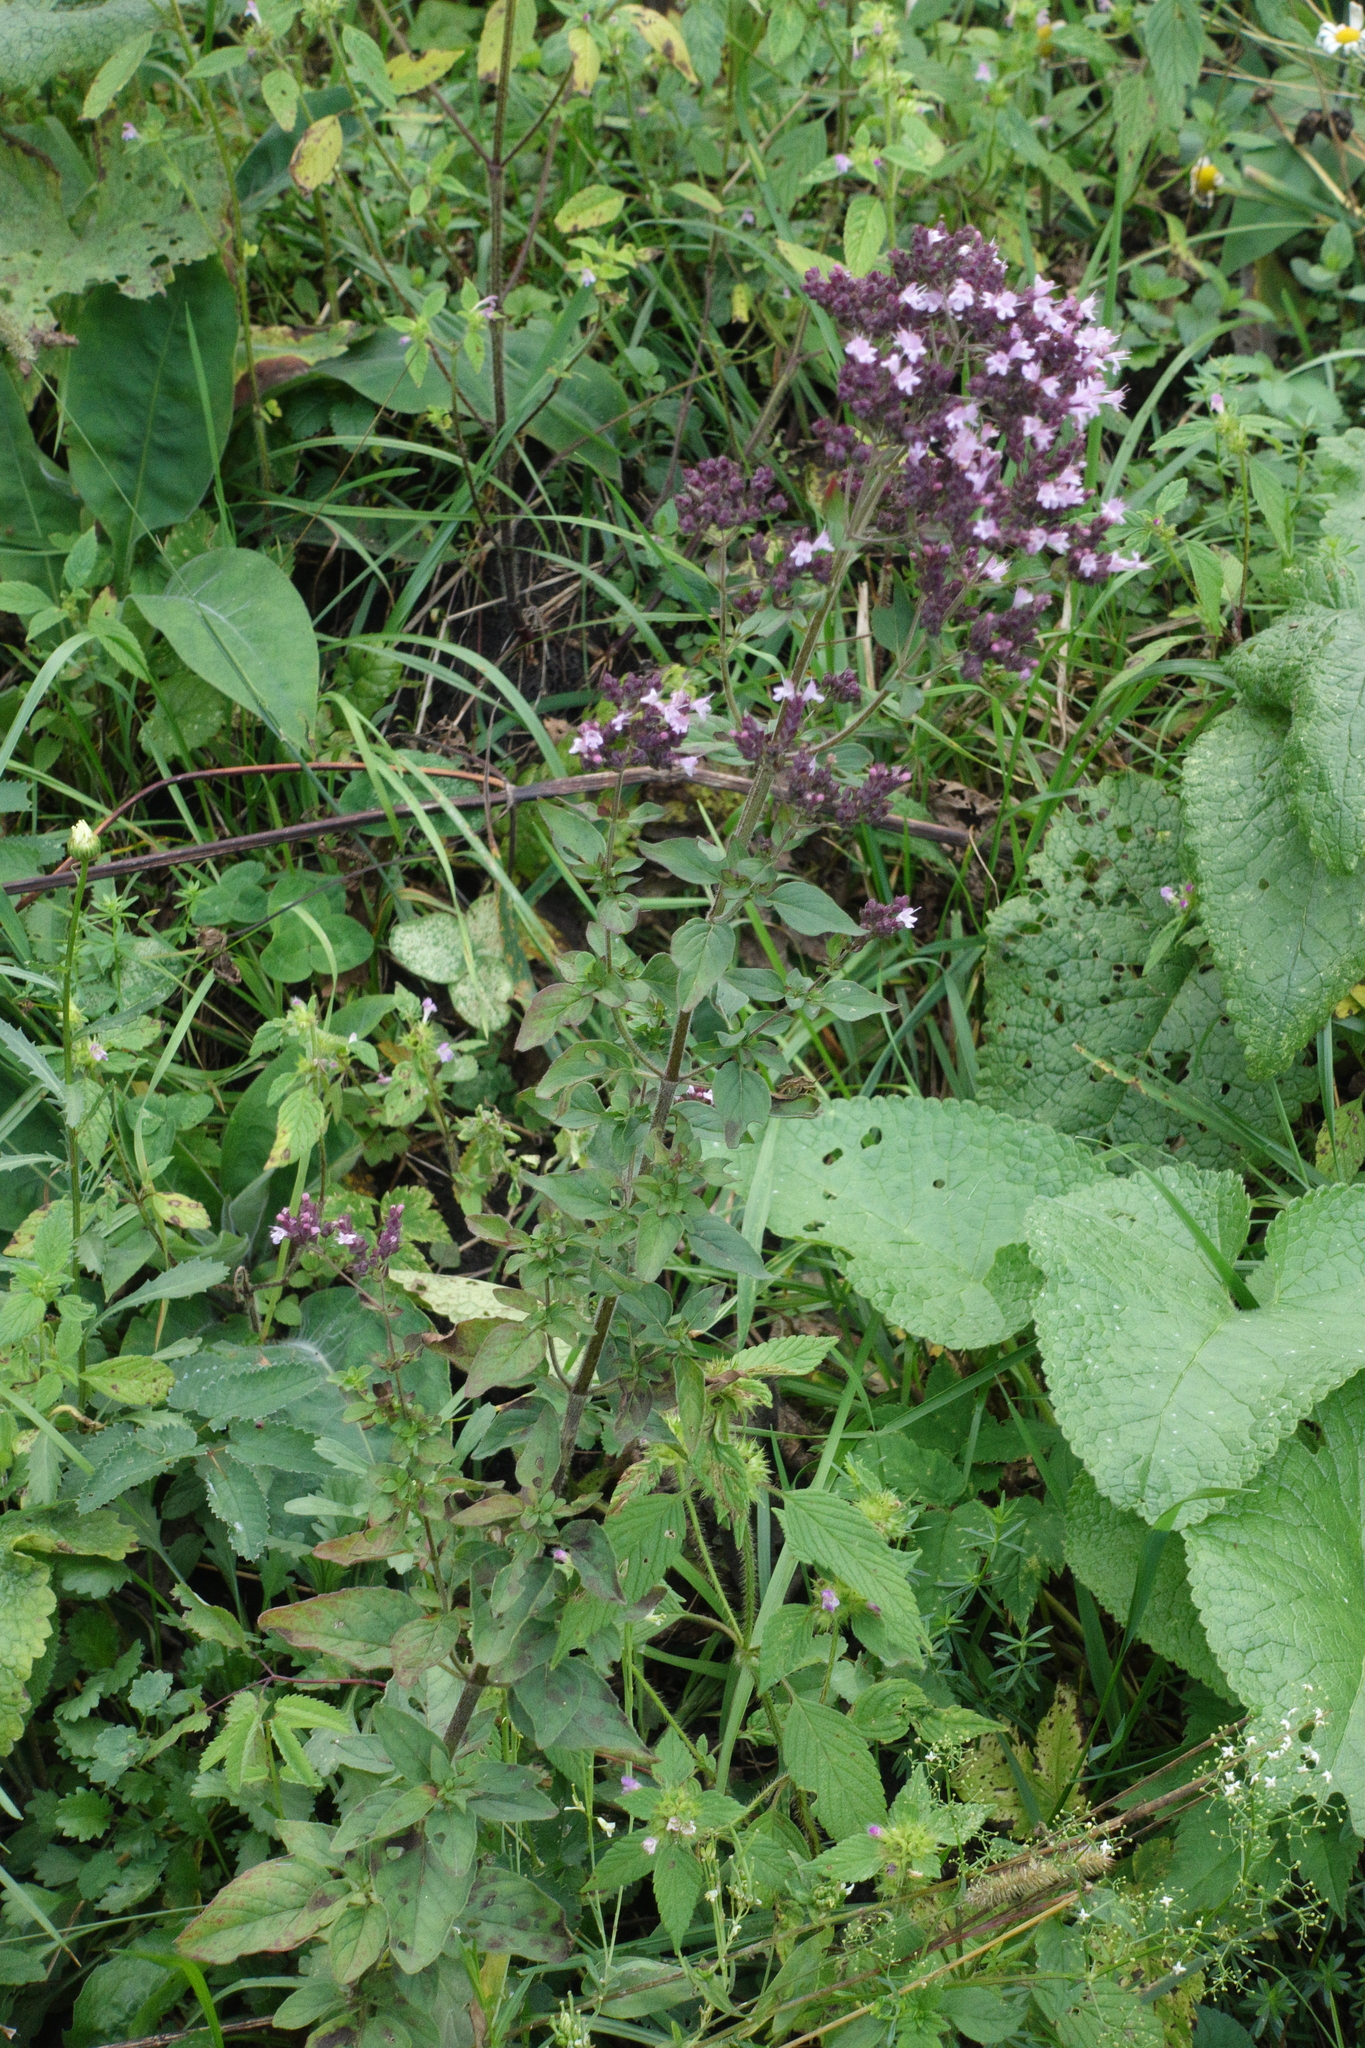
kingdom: Plantae
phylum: Tracheophyta
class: Magnoliopsida
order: Lamiales
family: Lamiaceae
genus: Origanum
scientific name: Origanum vulgare
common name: Wild marjoram
